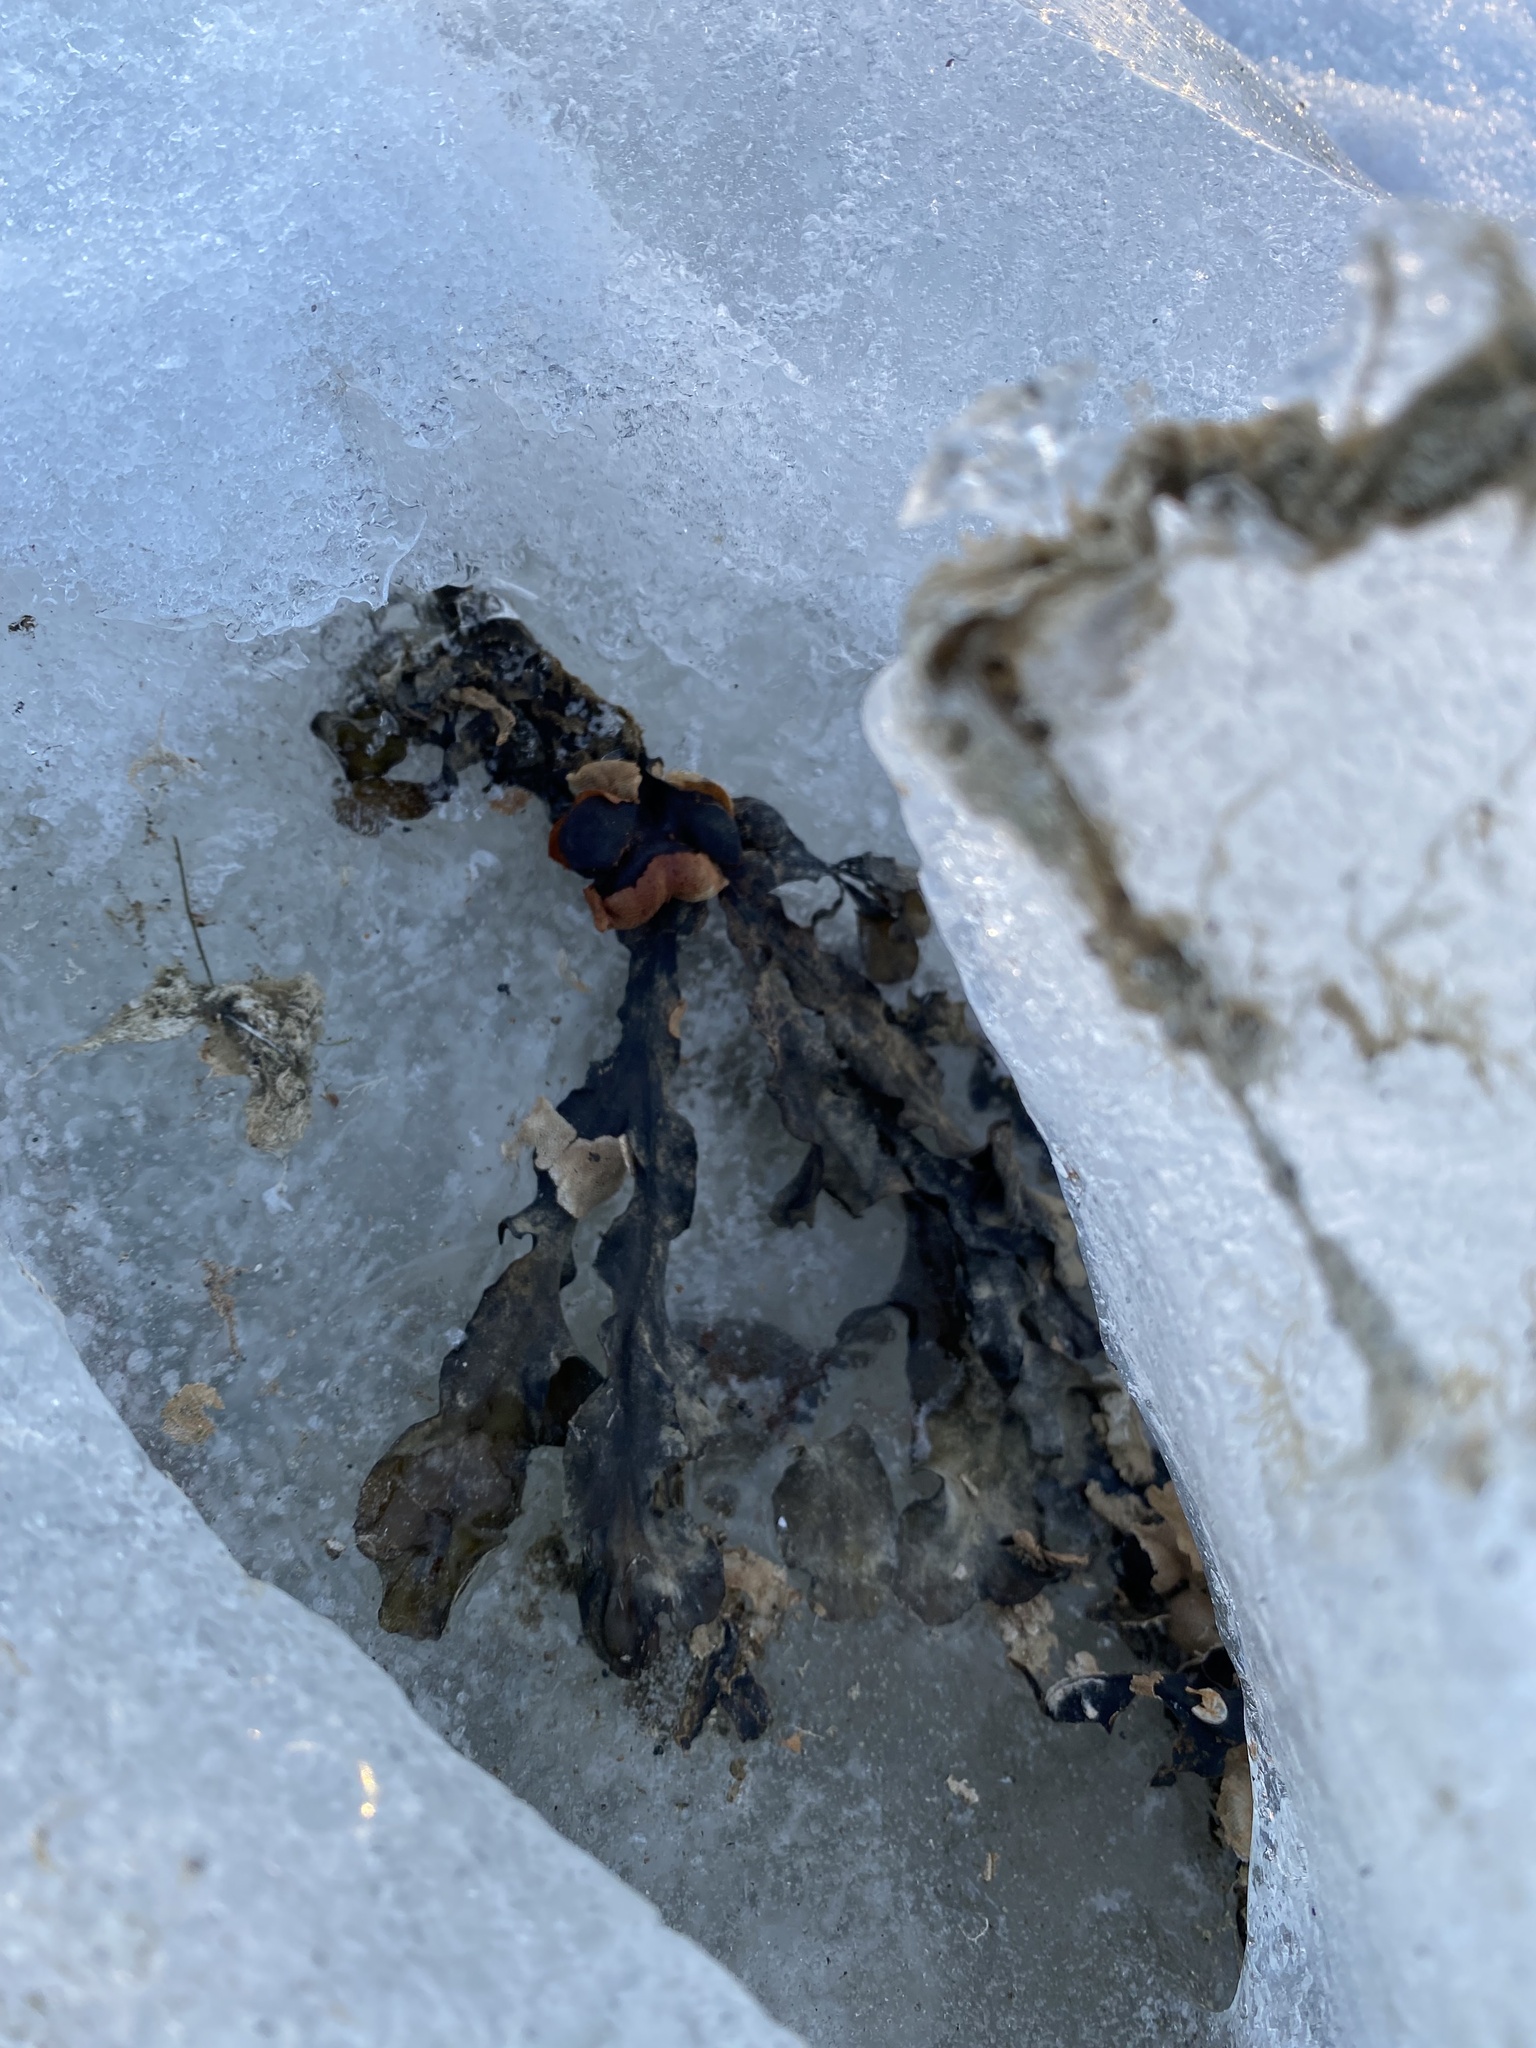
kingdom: Chromista
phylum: Ochrophyta
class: Phaeophyceae
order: Fucales
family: Fucaceae
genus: Fucus
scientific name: Fucus vesiculosus
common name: Bladder wrack
